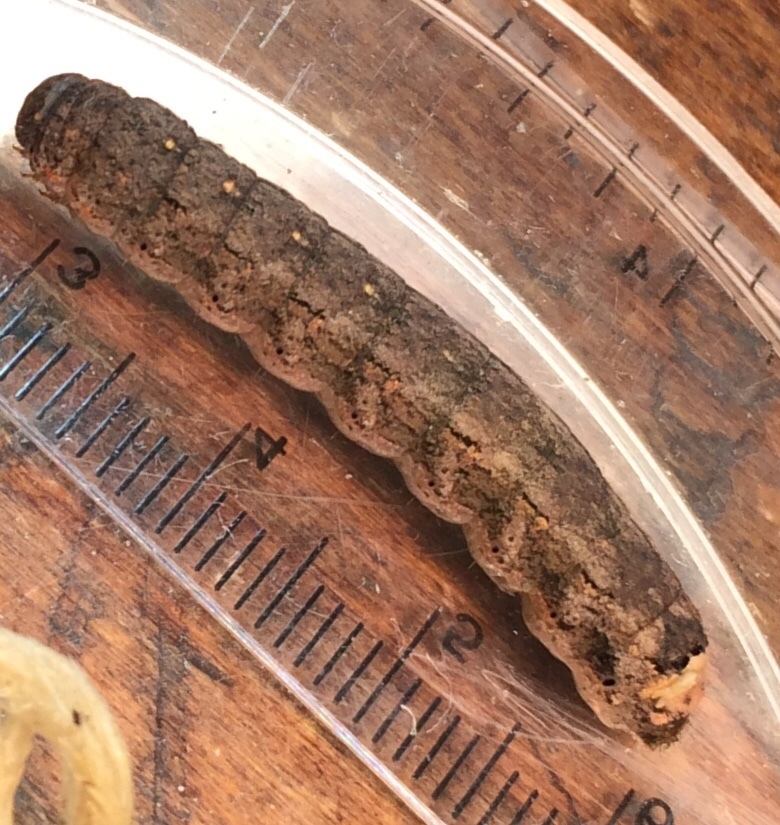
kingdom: Animalia
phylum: Arthropoda
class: Insecta
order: Lepidoptera
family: Noctuidae
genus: Peridroma
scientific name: Peridroma saucia
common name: Pearly underwing
